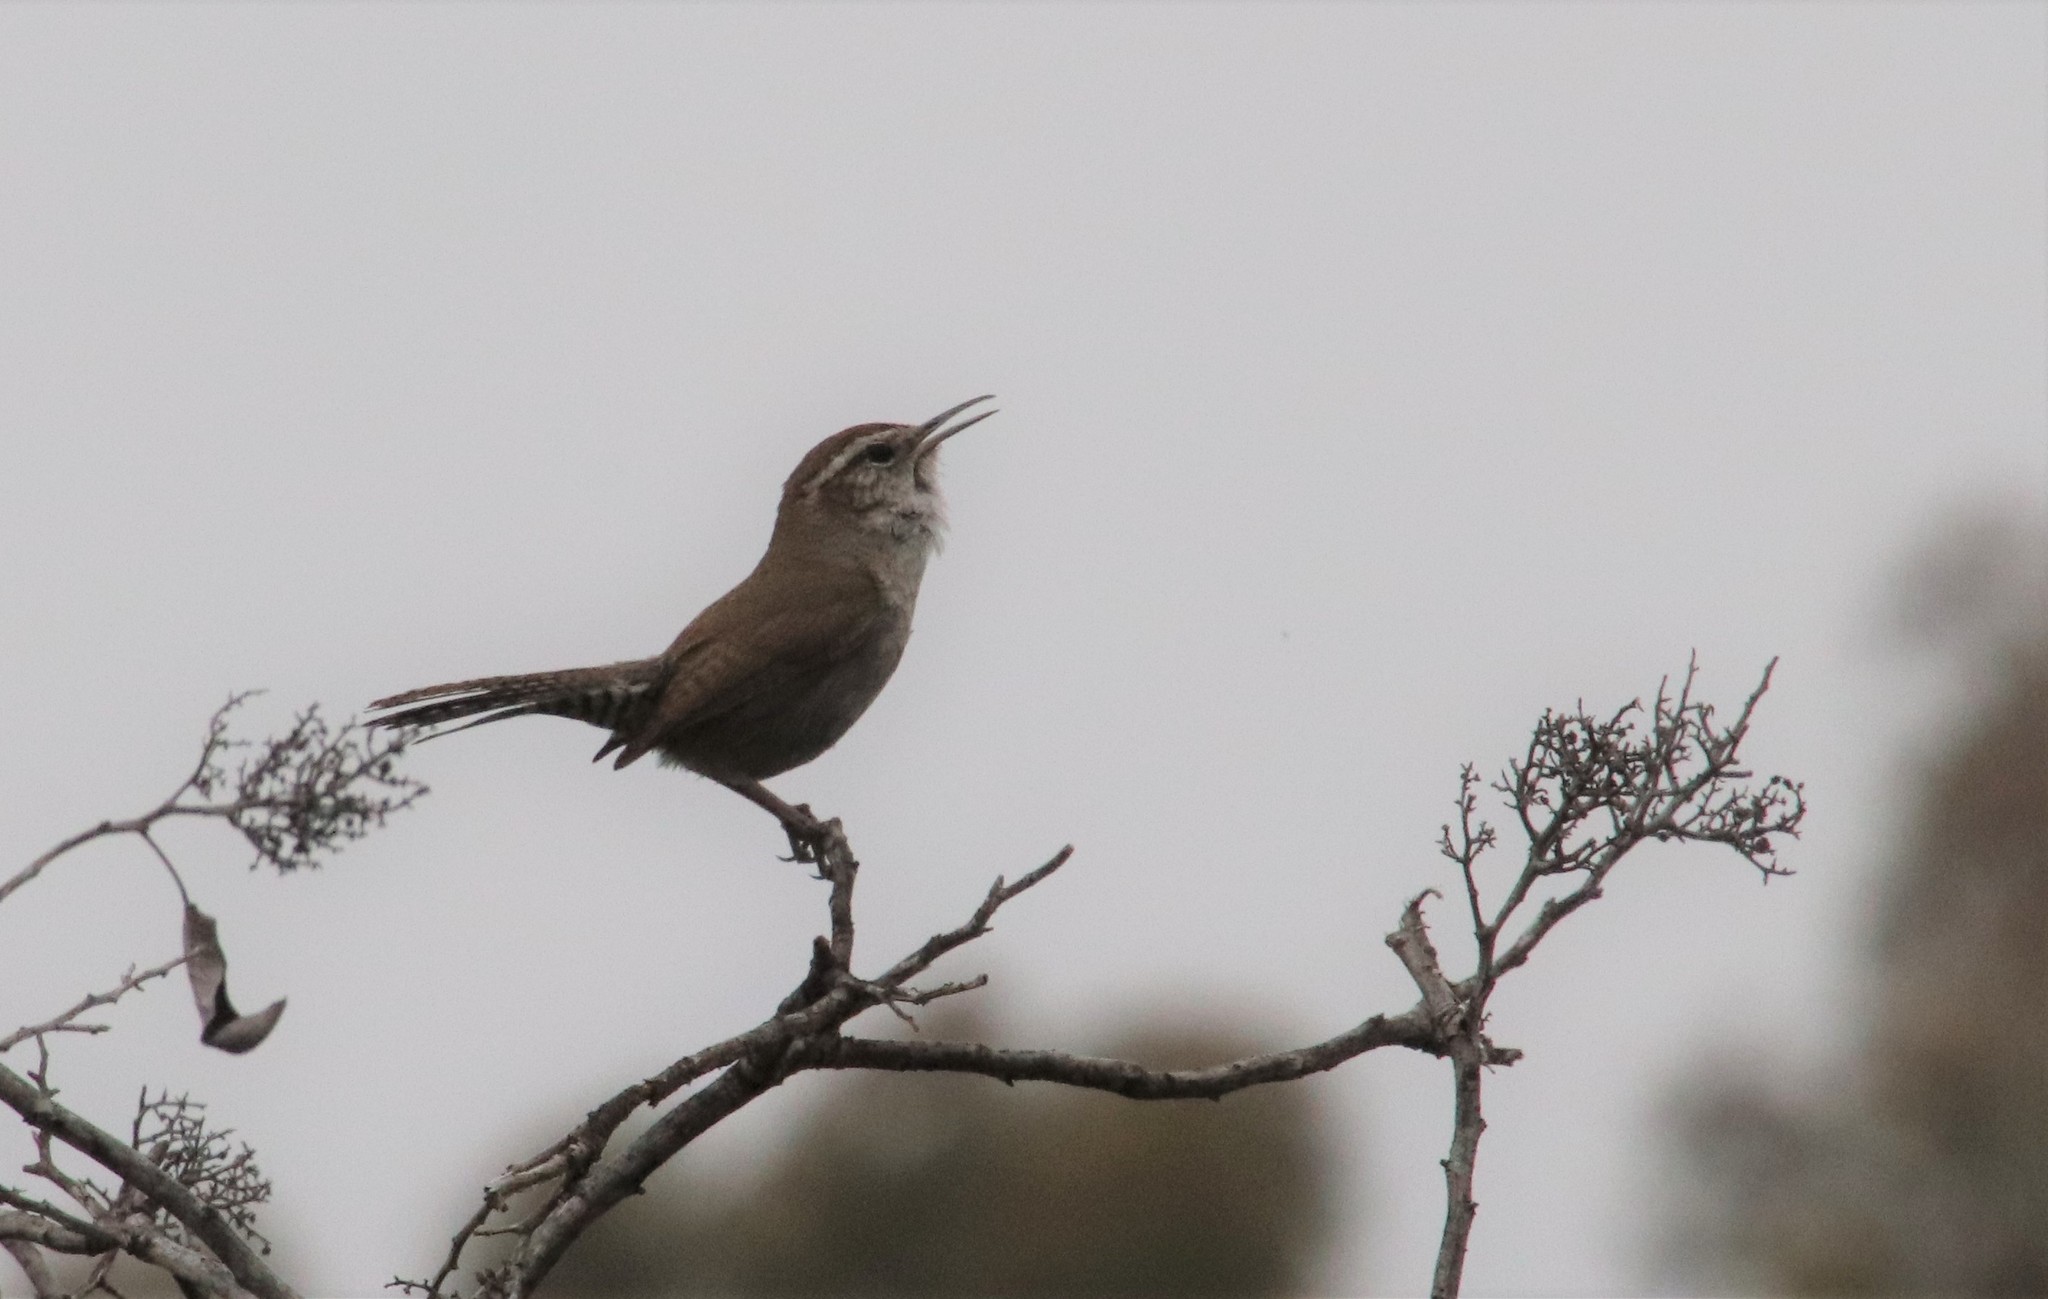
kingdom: Animalia
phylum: Chordata
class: Aves
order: Passeriformes
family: Troglodytidae
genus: Thryomanes
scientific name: Thryomanes bewickii
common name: Bewick's wren
